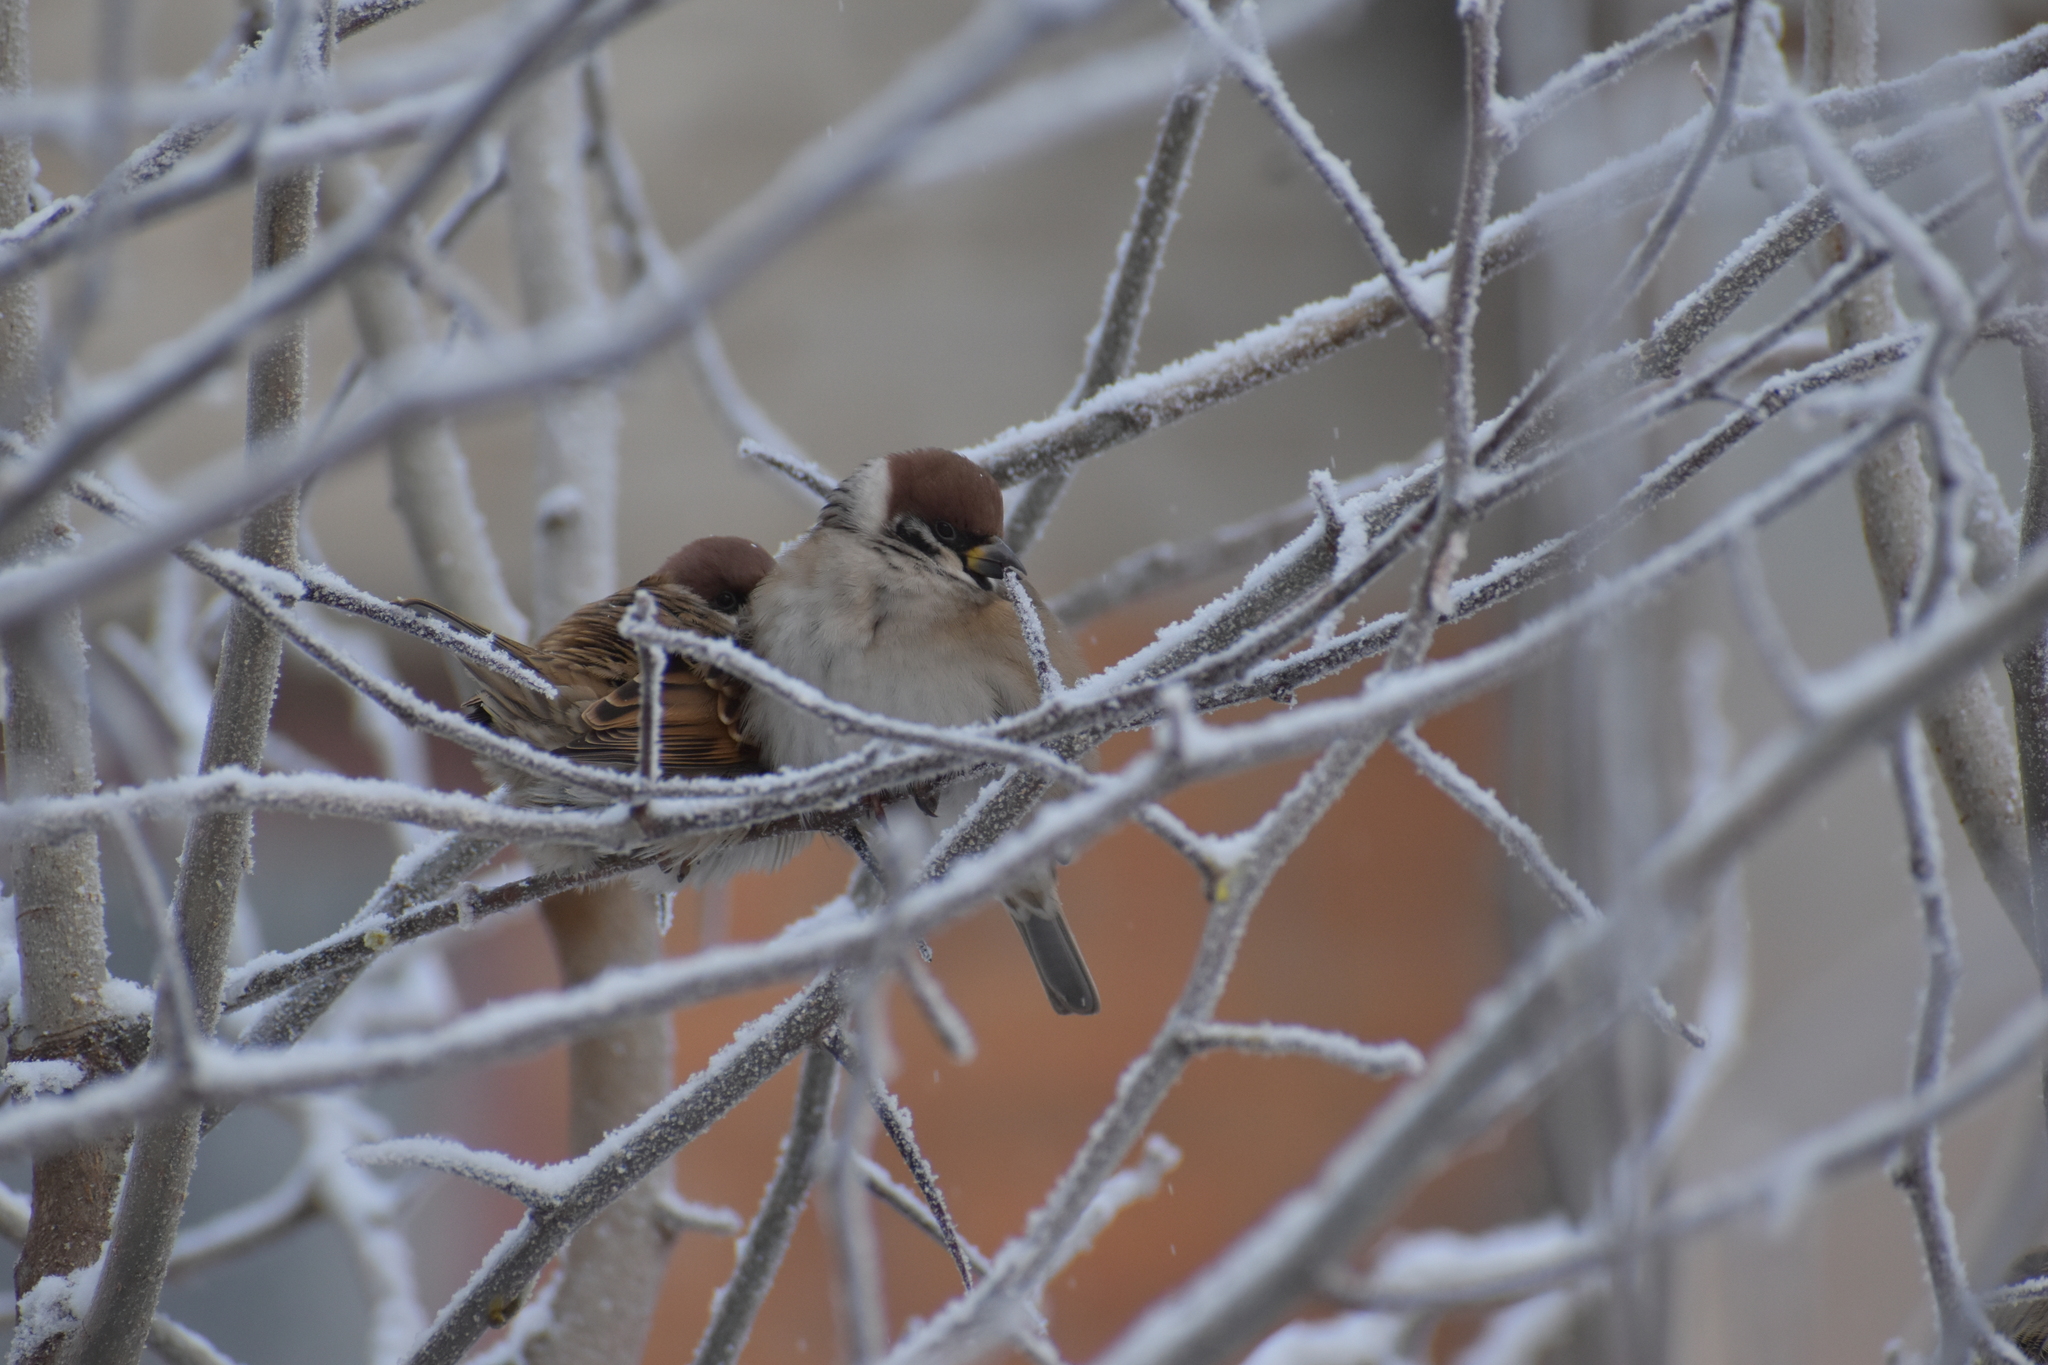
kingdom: Animalia
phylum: Chordata
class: Aves
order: Passeriformes
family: Passeridae
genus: Passer
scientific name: Passer montanus
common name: Eurasian tree sparrow
